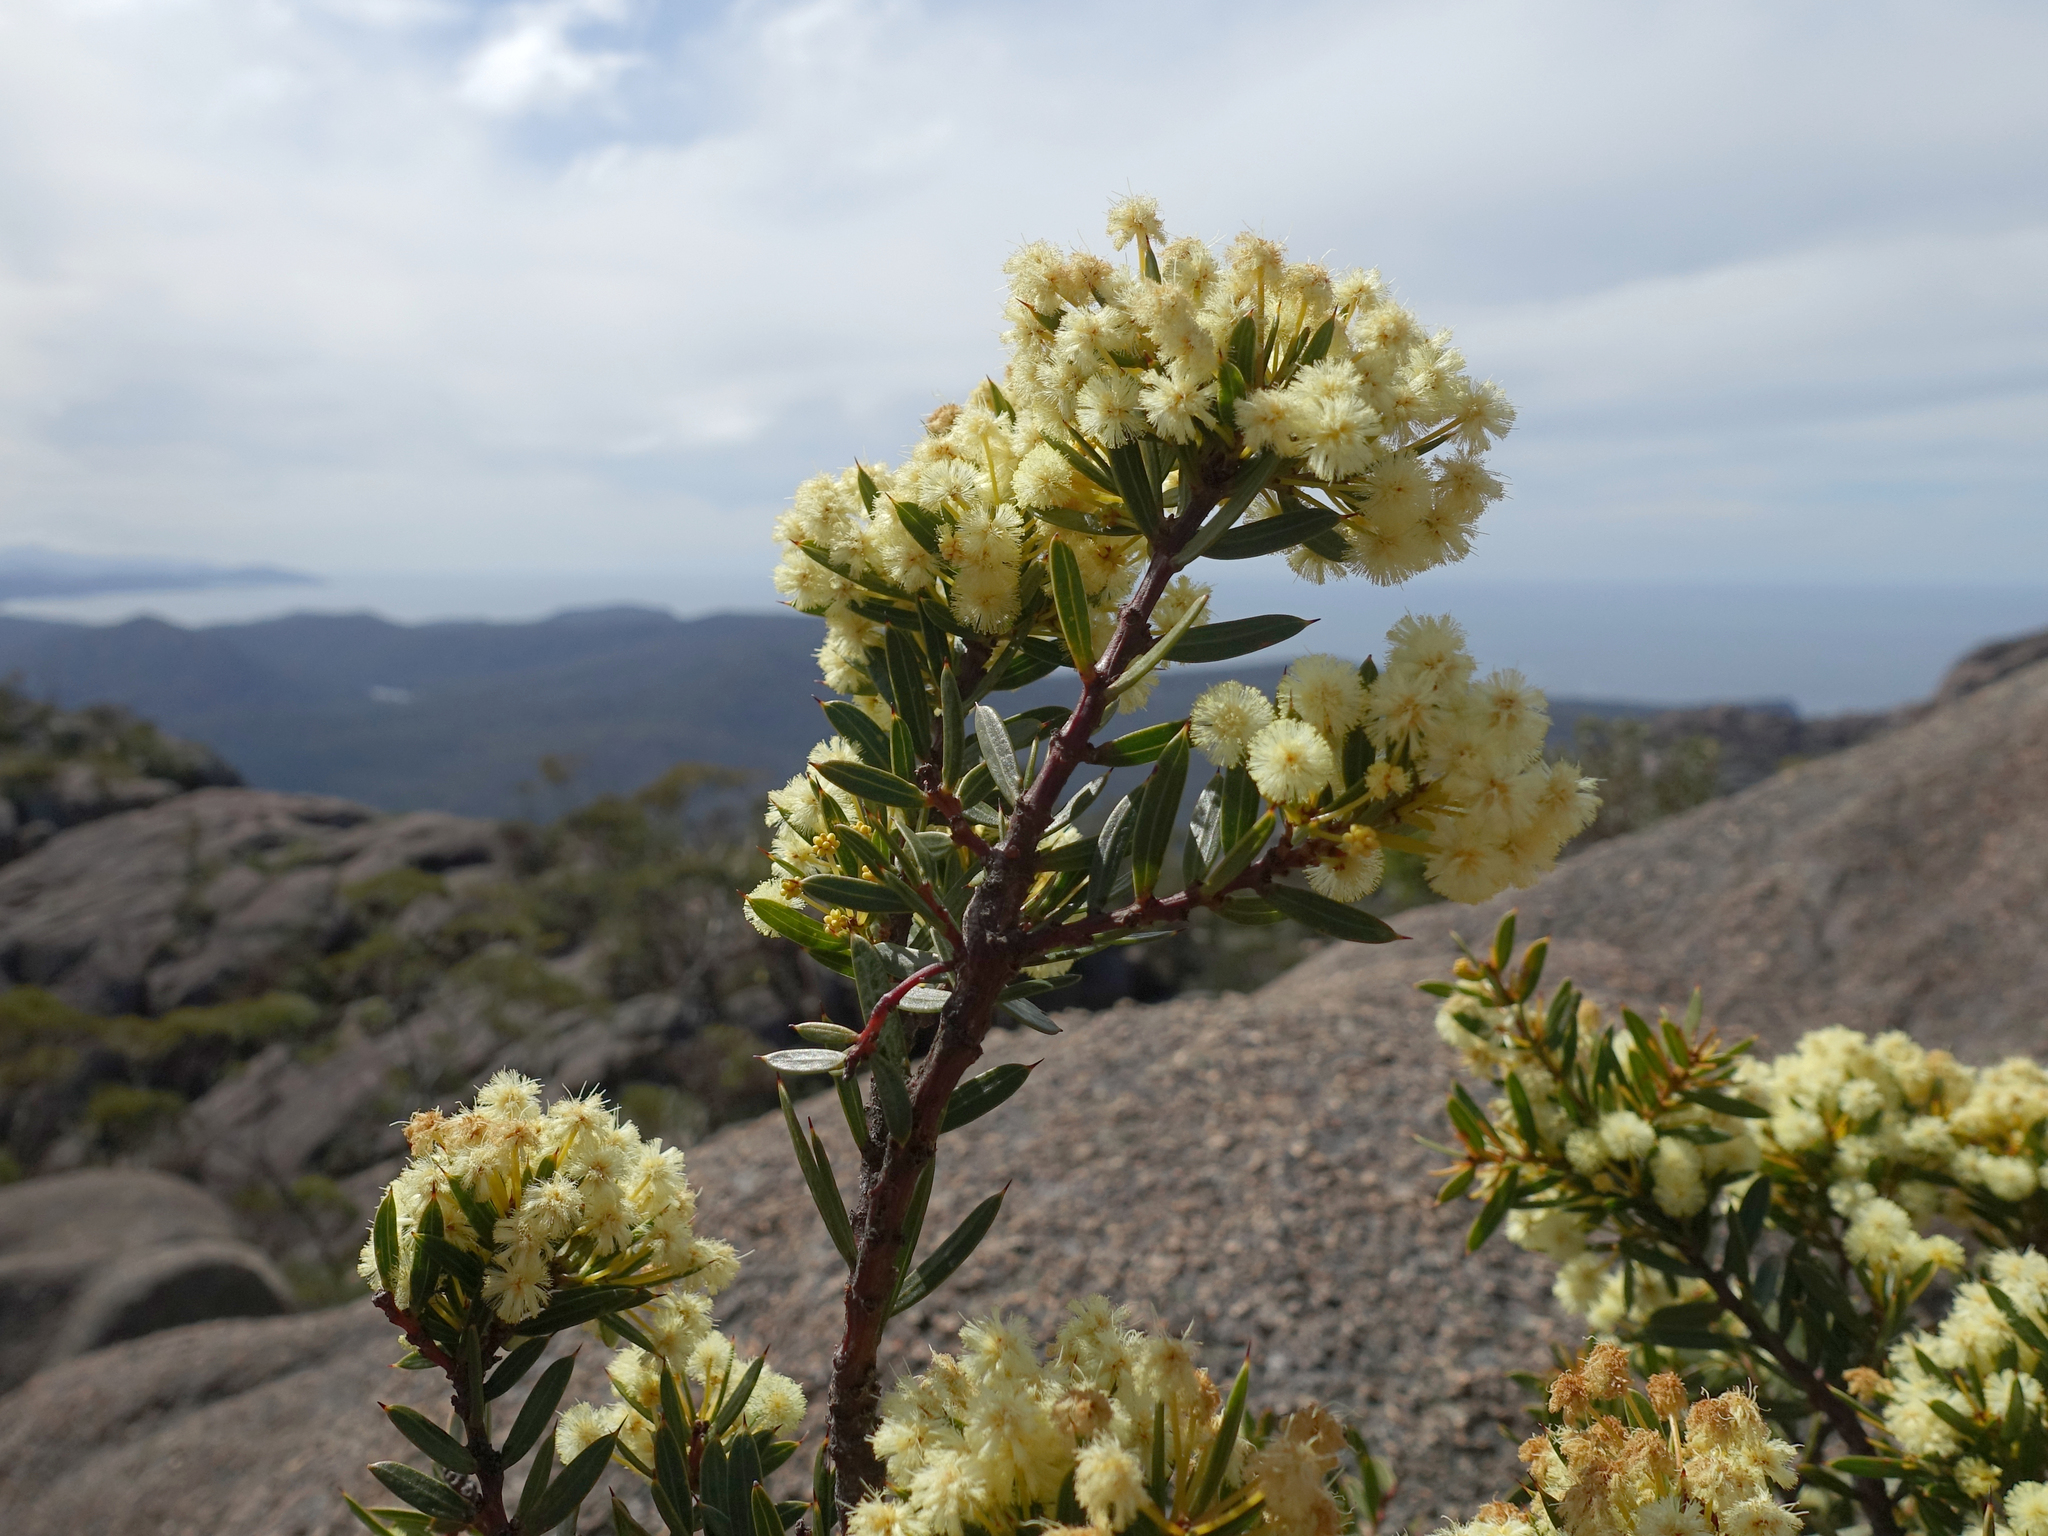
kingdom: Plantae
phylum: Tracheophyta
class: Magnoliopsida
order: Fabales
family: Fabaceae
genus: Acacia
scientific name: Acacia genistifolia
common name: Early wattle
